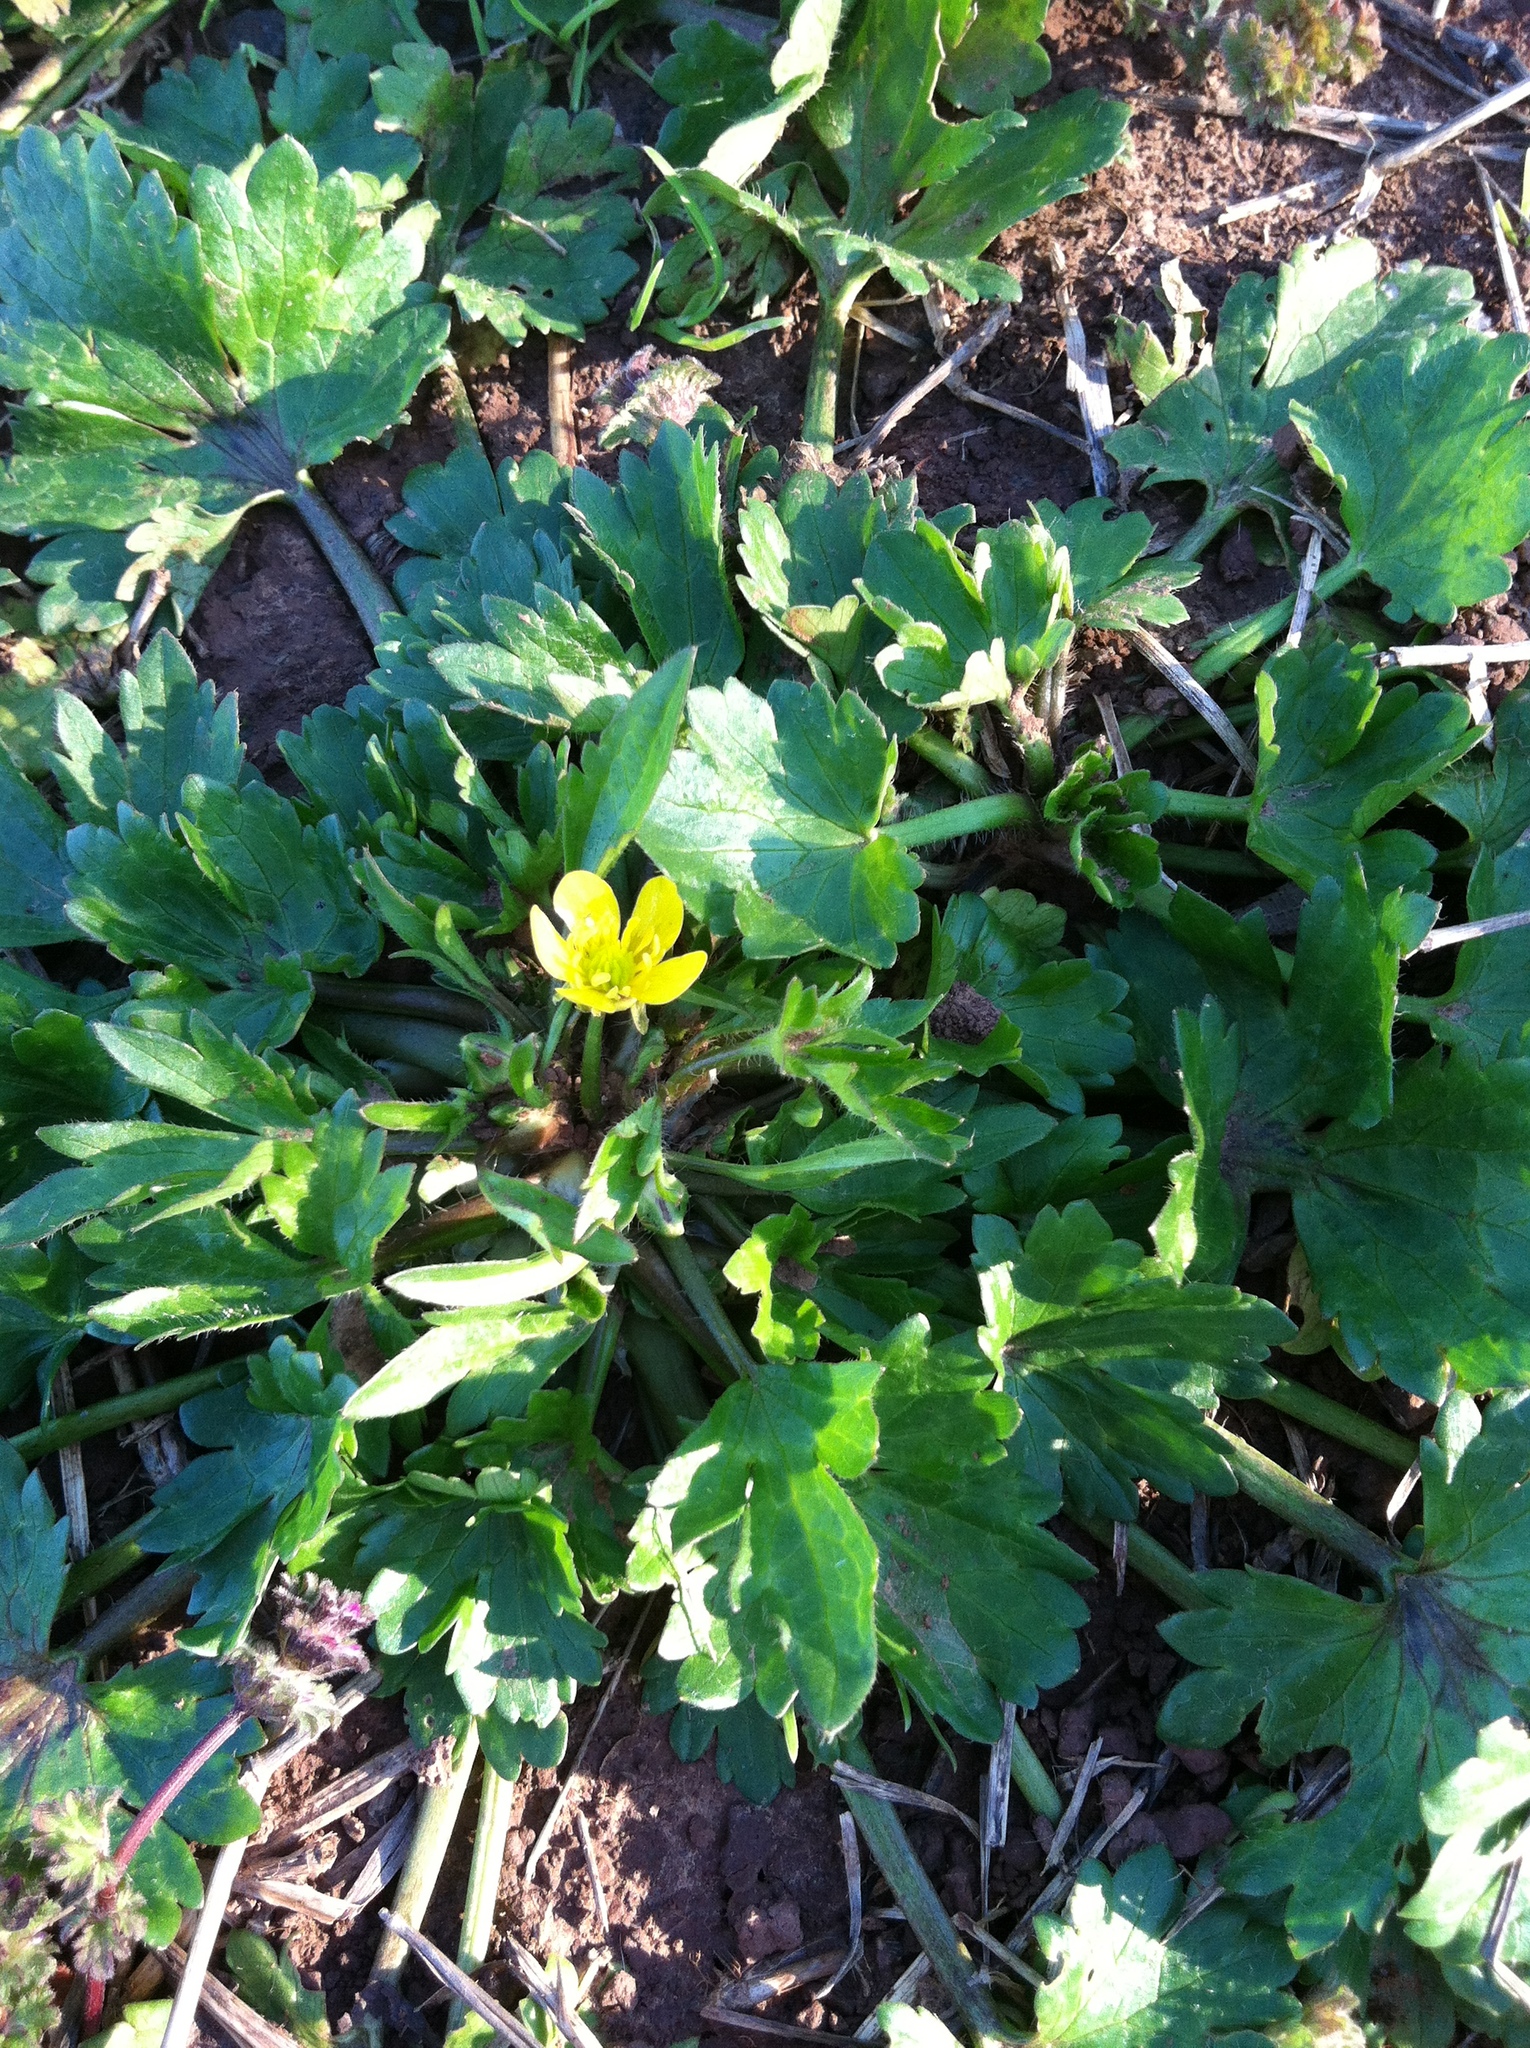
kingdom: Plantae
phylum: Tracheophyta
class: Magnoliopsida
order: Ranunculales
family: Ranunculaceae
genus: Ranunculus
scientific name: Ranunculus muricatus
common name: Rough-fruited buttercup
